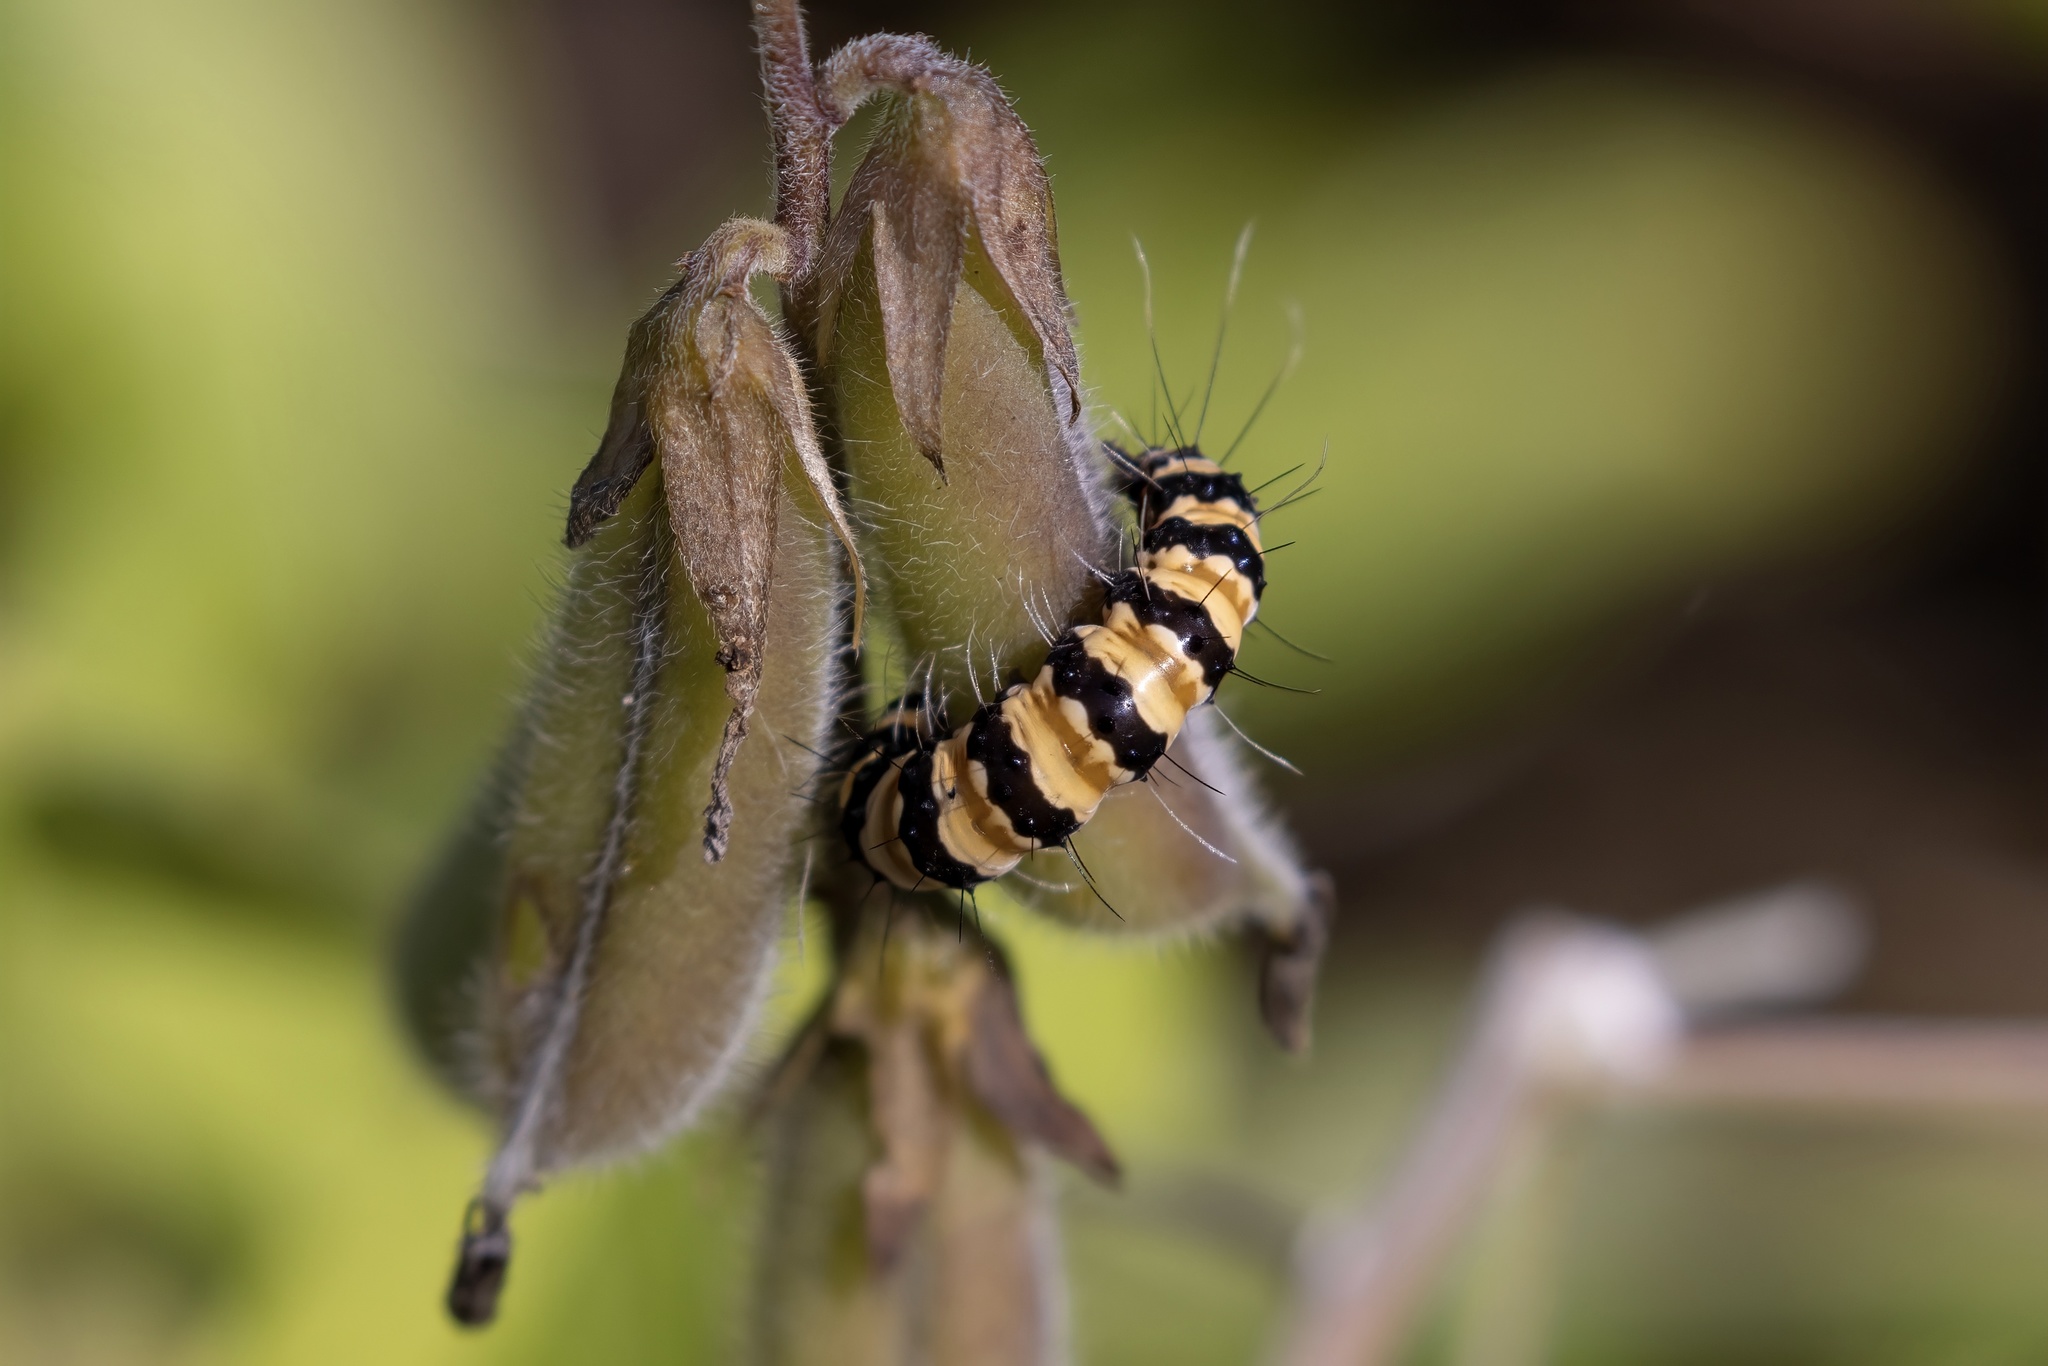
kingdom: Animalia
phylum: Arthropoda
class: Insecta
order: Lepidoptera
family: Erebidae
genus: Utetheisa
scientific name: Utetheisa ornatrix
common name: Beautiful utetheisa
